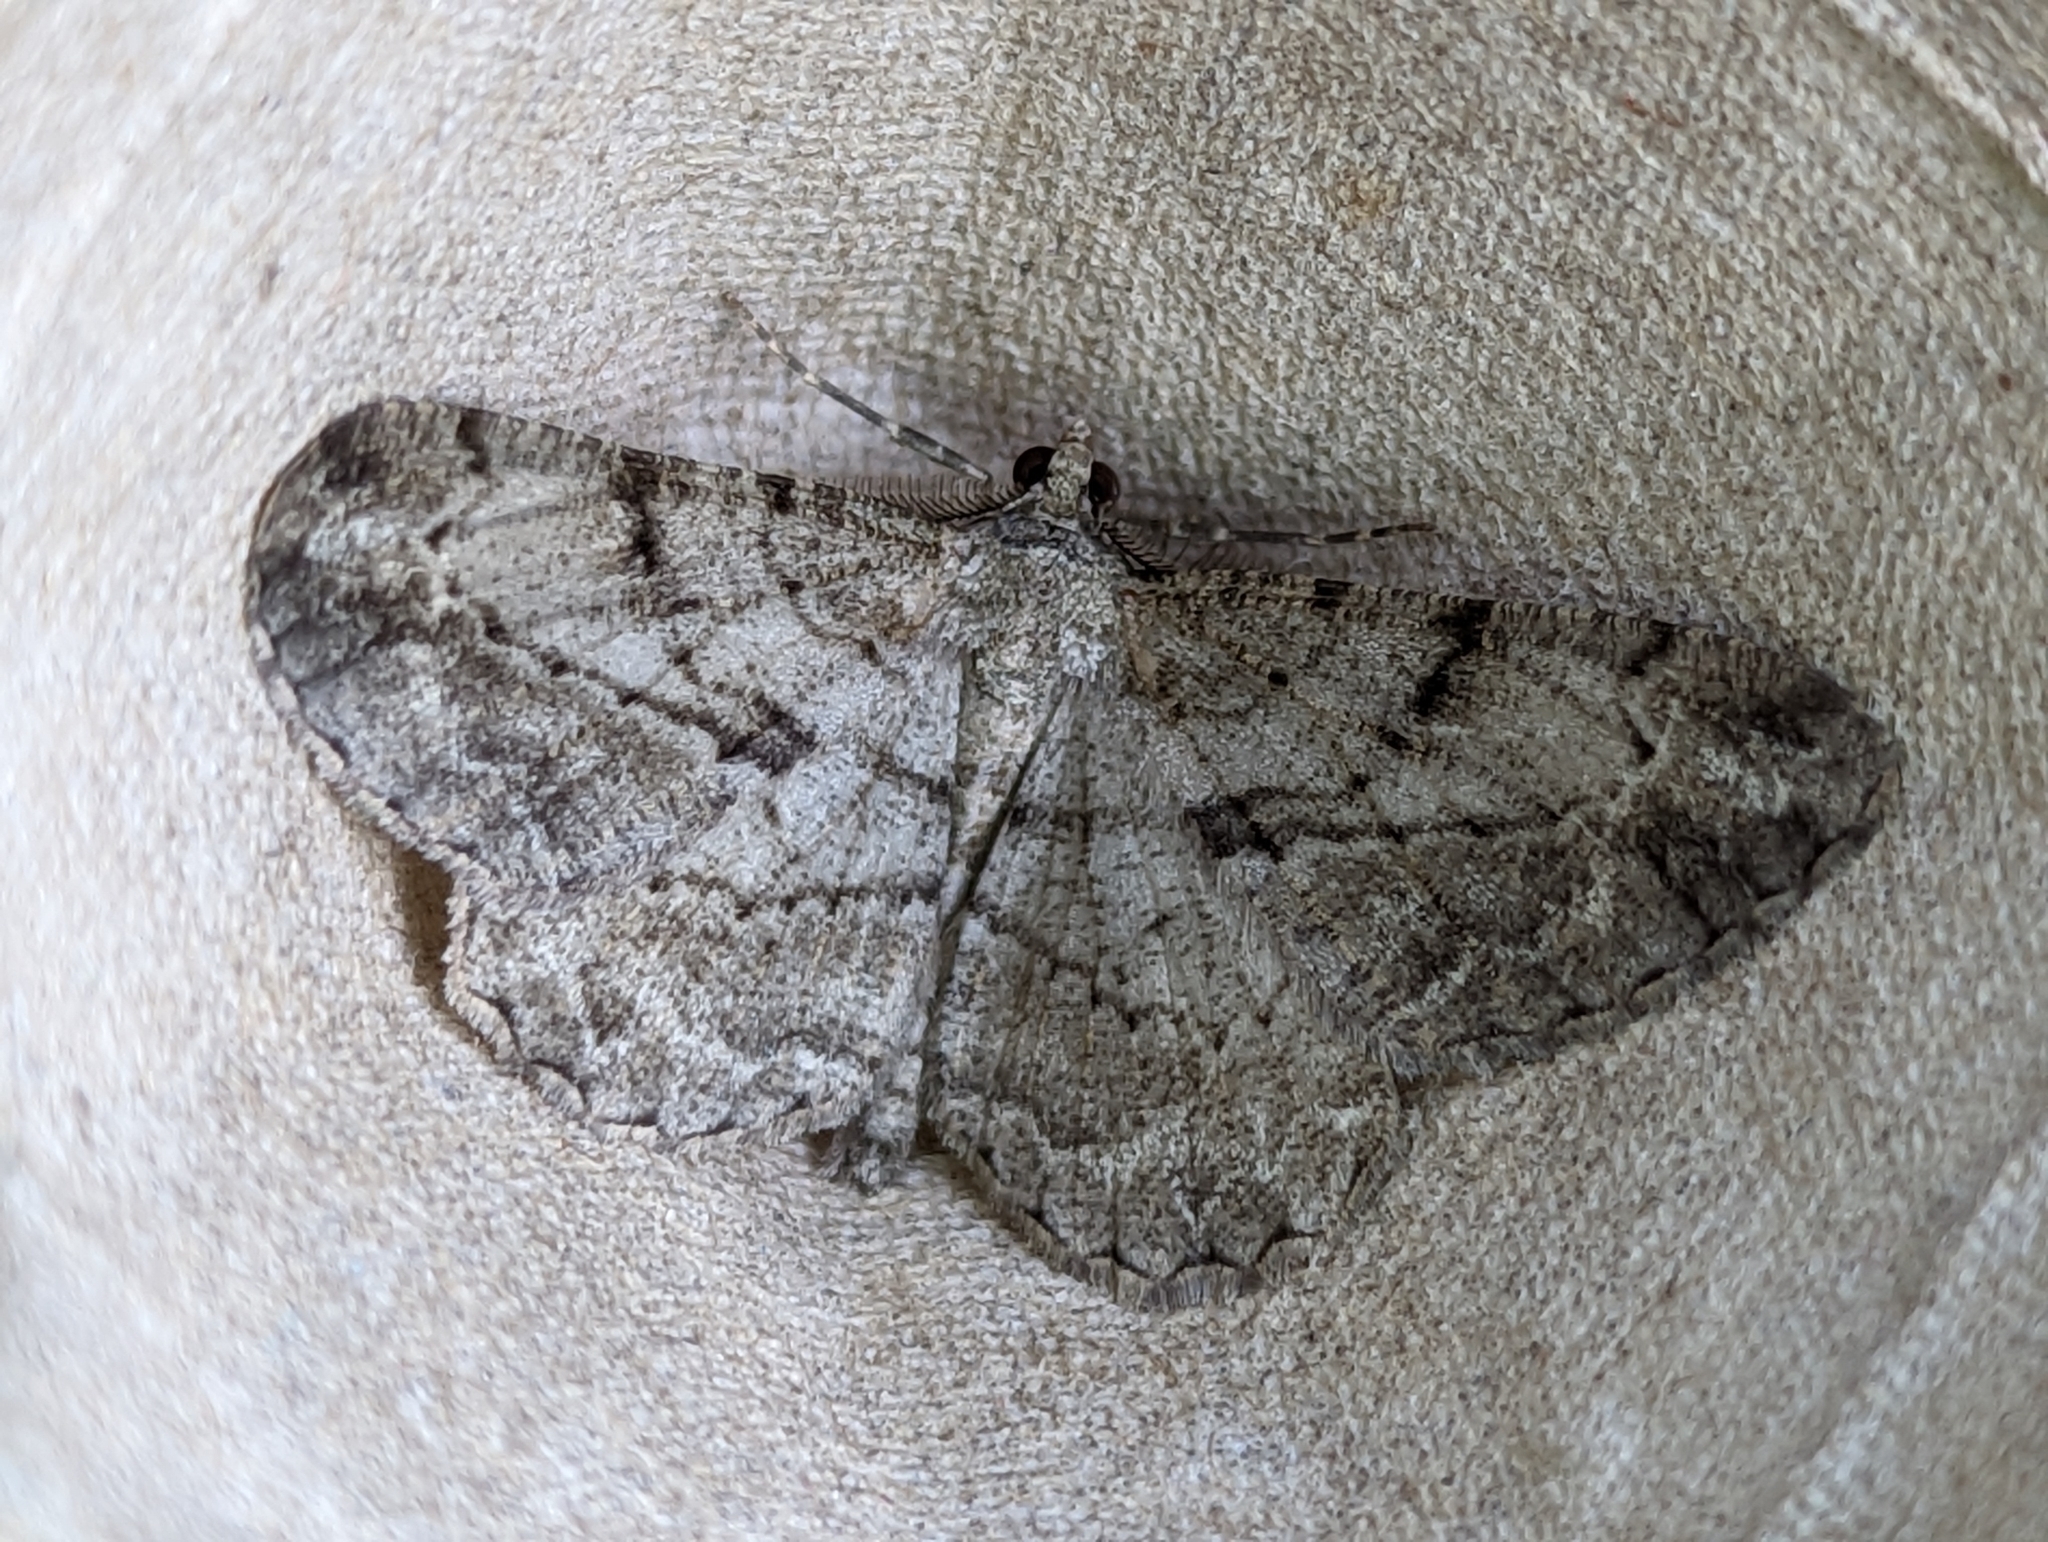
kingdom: Animalia
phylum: Arthropoda
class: Insecta
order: Lepidoptera
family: Geometridae
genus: Peribatodes
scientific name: Peribatodes rhomboidaria
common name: Willow beauty
